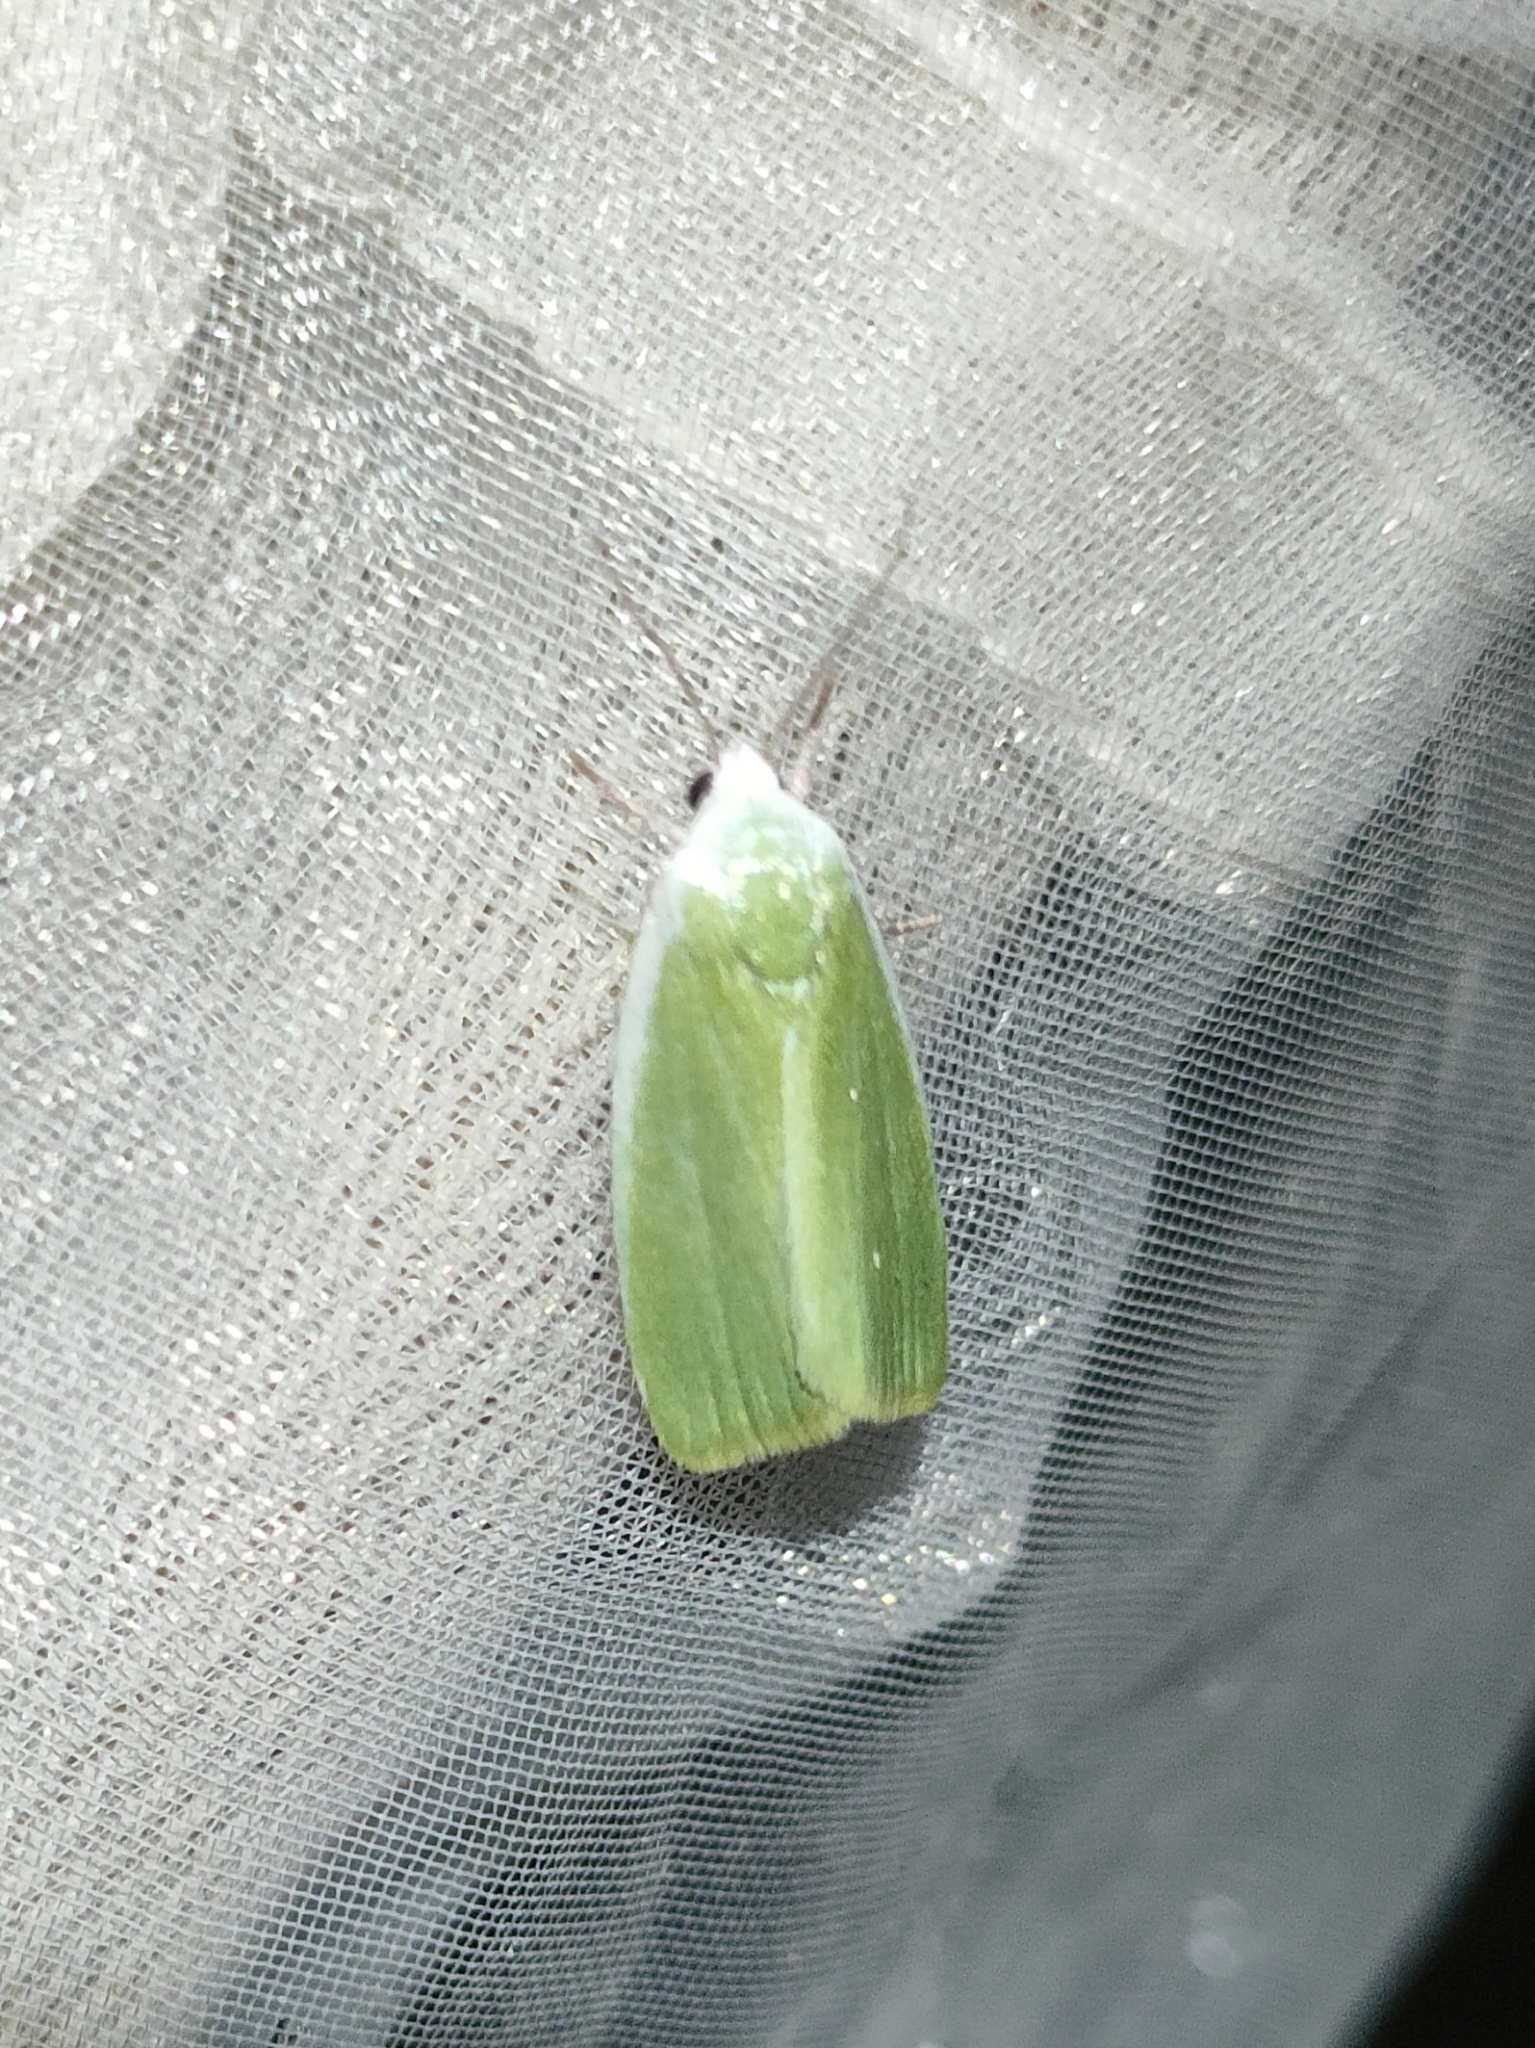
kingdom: Animalia
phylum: Arthropoda
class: Insecta
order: Lepidoptera
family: Nolidae
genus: Earias
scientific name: Earias clorana
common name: Cream-bordered green pea
